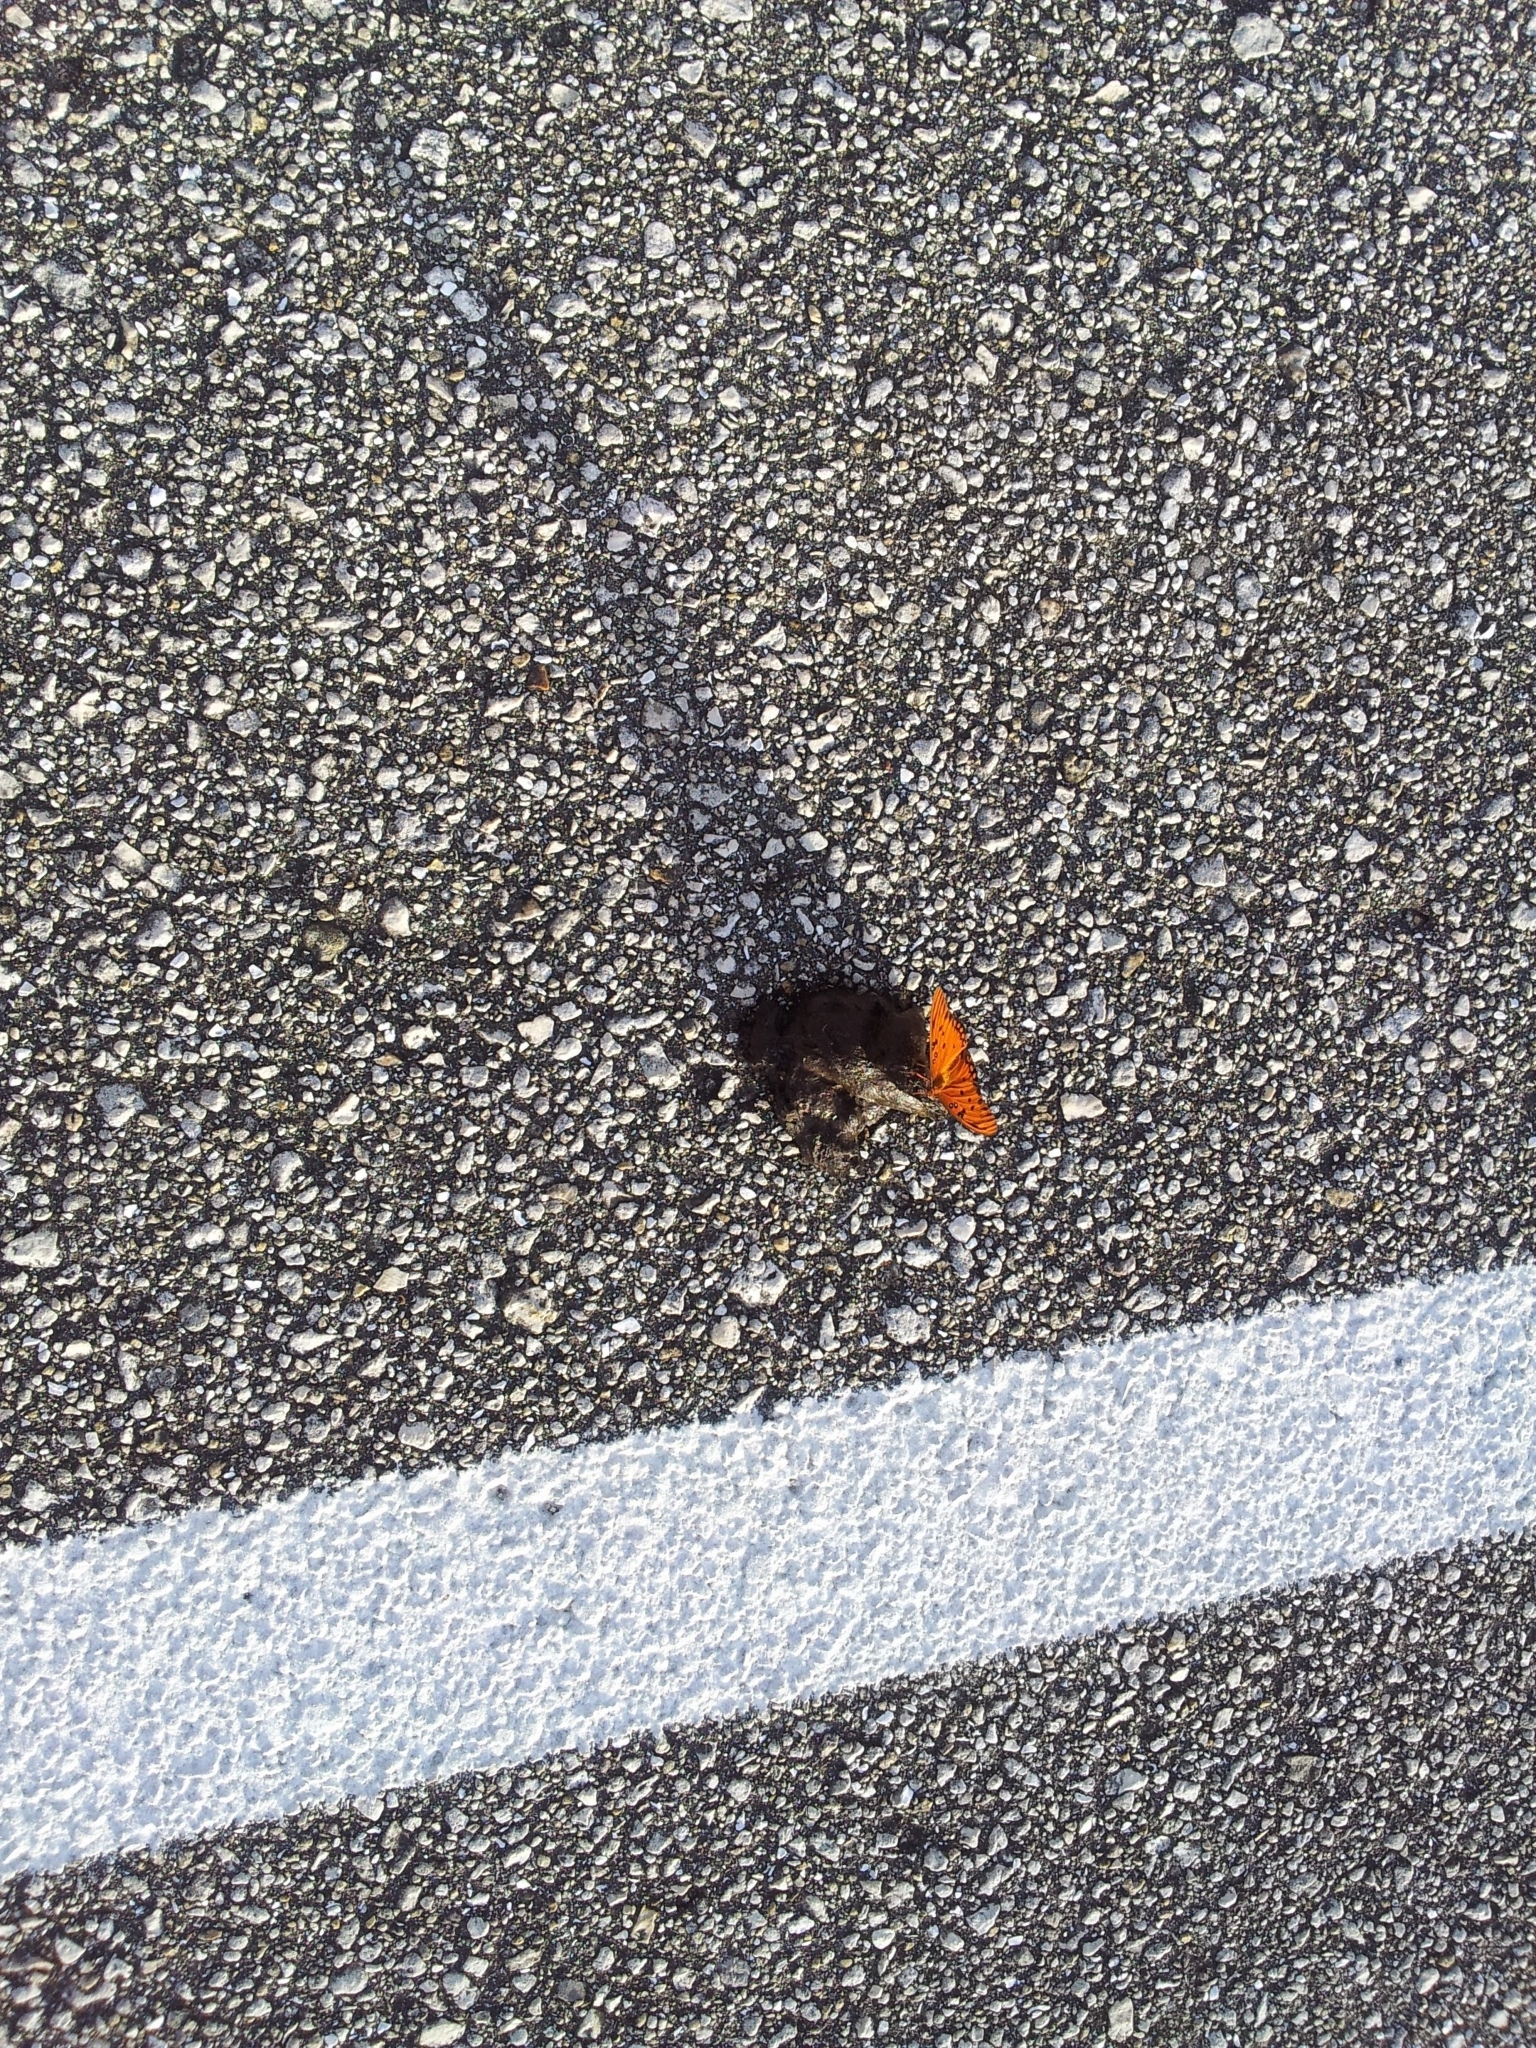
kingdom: Animalia
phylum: Arthropoda
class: Insecta
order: Lepidoptera
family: Nymphalidae
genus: Dione
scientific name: Dione vanillae
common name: Gulf fritillary
